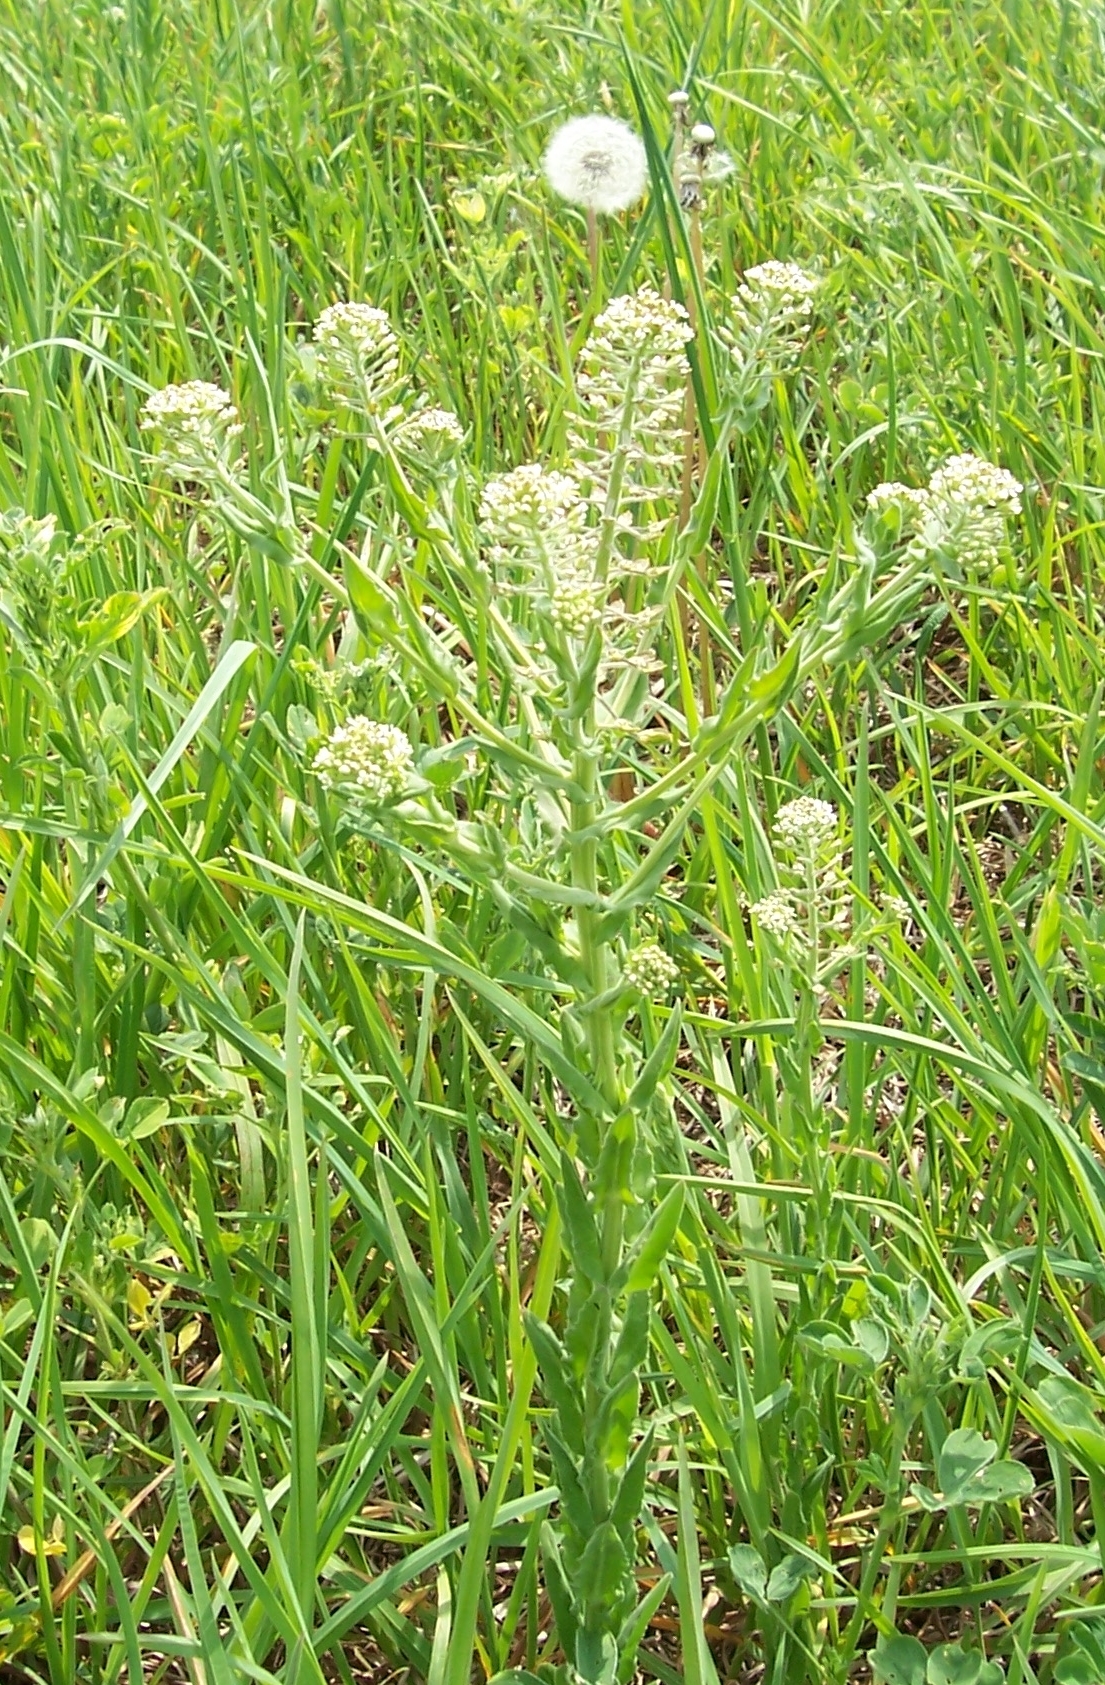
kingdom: Plantae
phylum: Tracheophyta
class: Magnoliopsida
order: Brassicales
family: Brassicaceae
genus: Lepidium
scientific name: Lepidium campestre
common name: Field pepperwort
